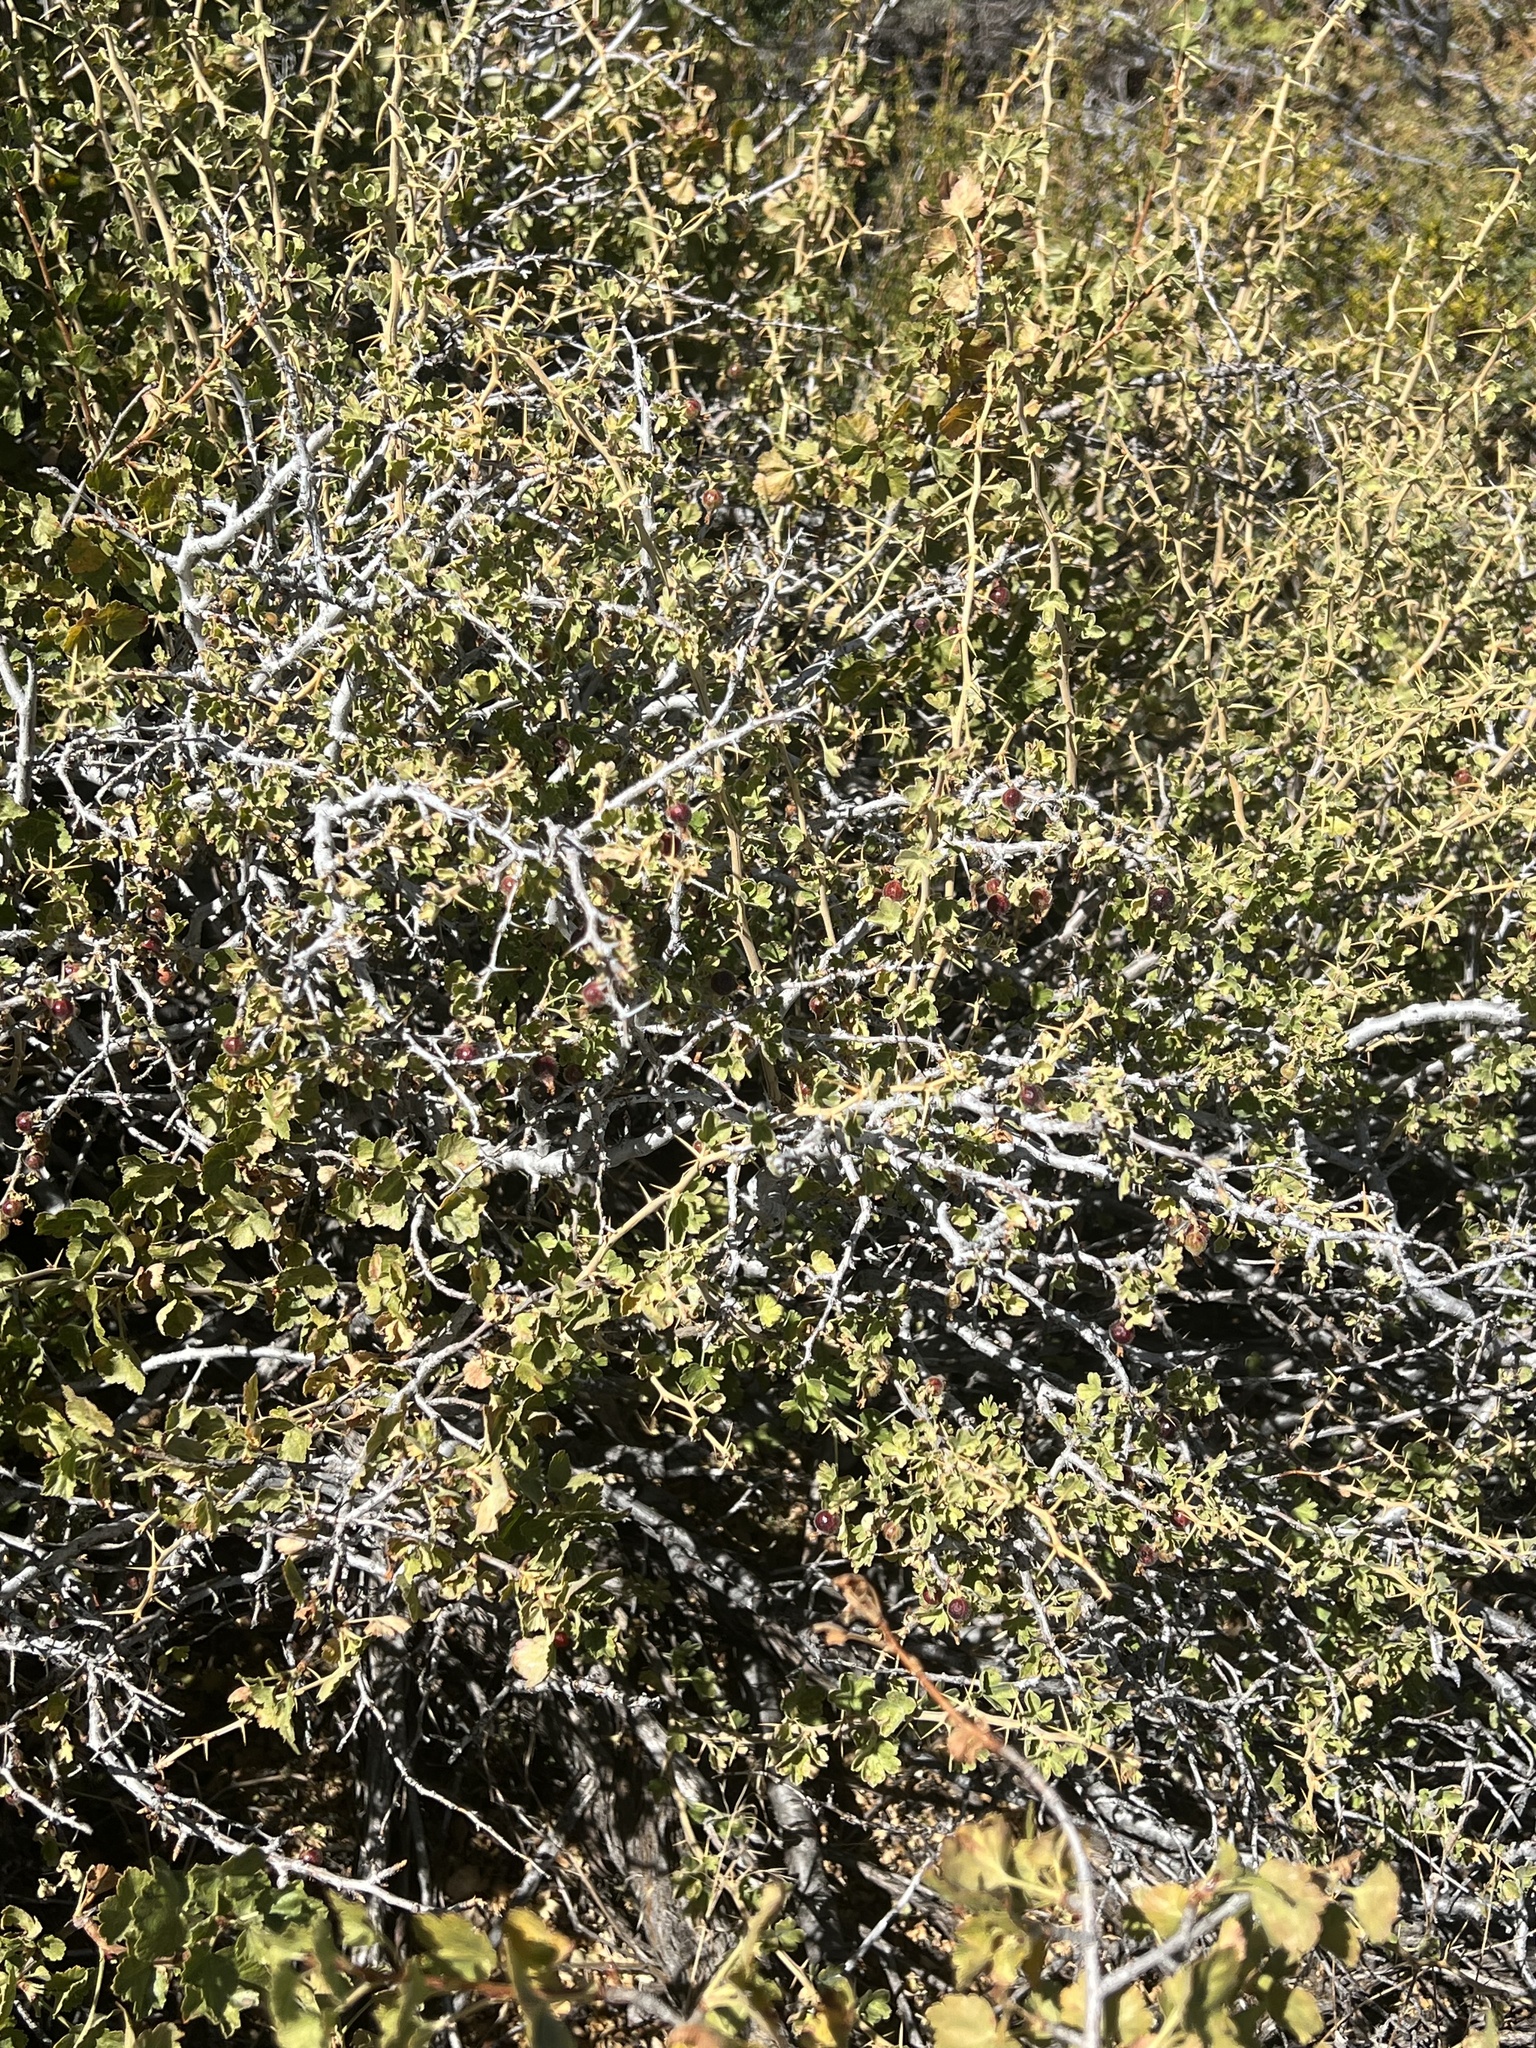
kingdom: Plantae
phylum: Tracheophyta
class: Magnoliopsida
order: Saxifragales
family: Grossulariaceae
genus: Ribes
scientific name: Ribes velutinum
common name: Desert gooseberry
